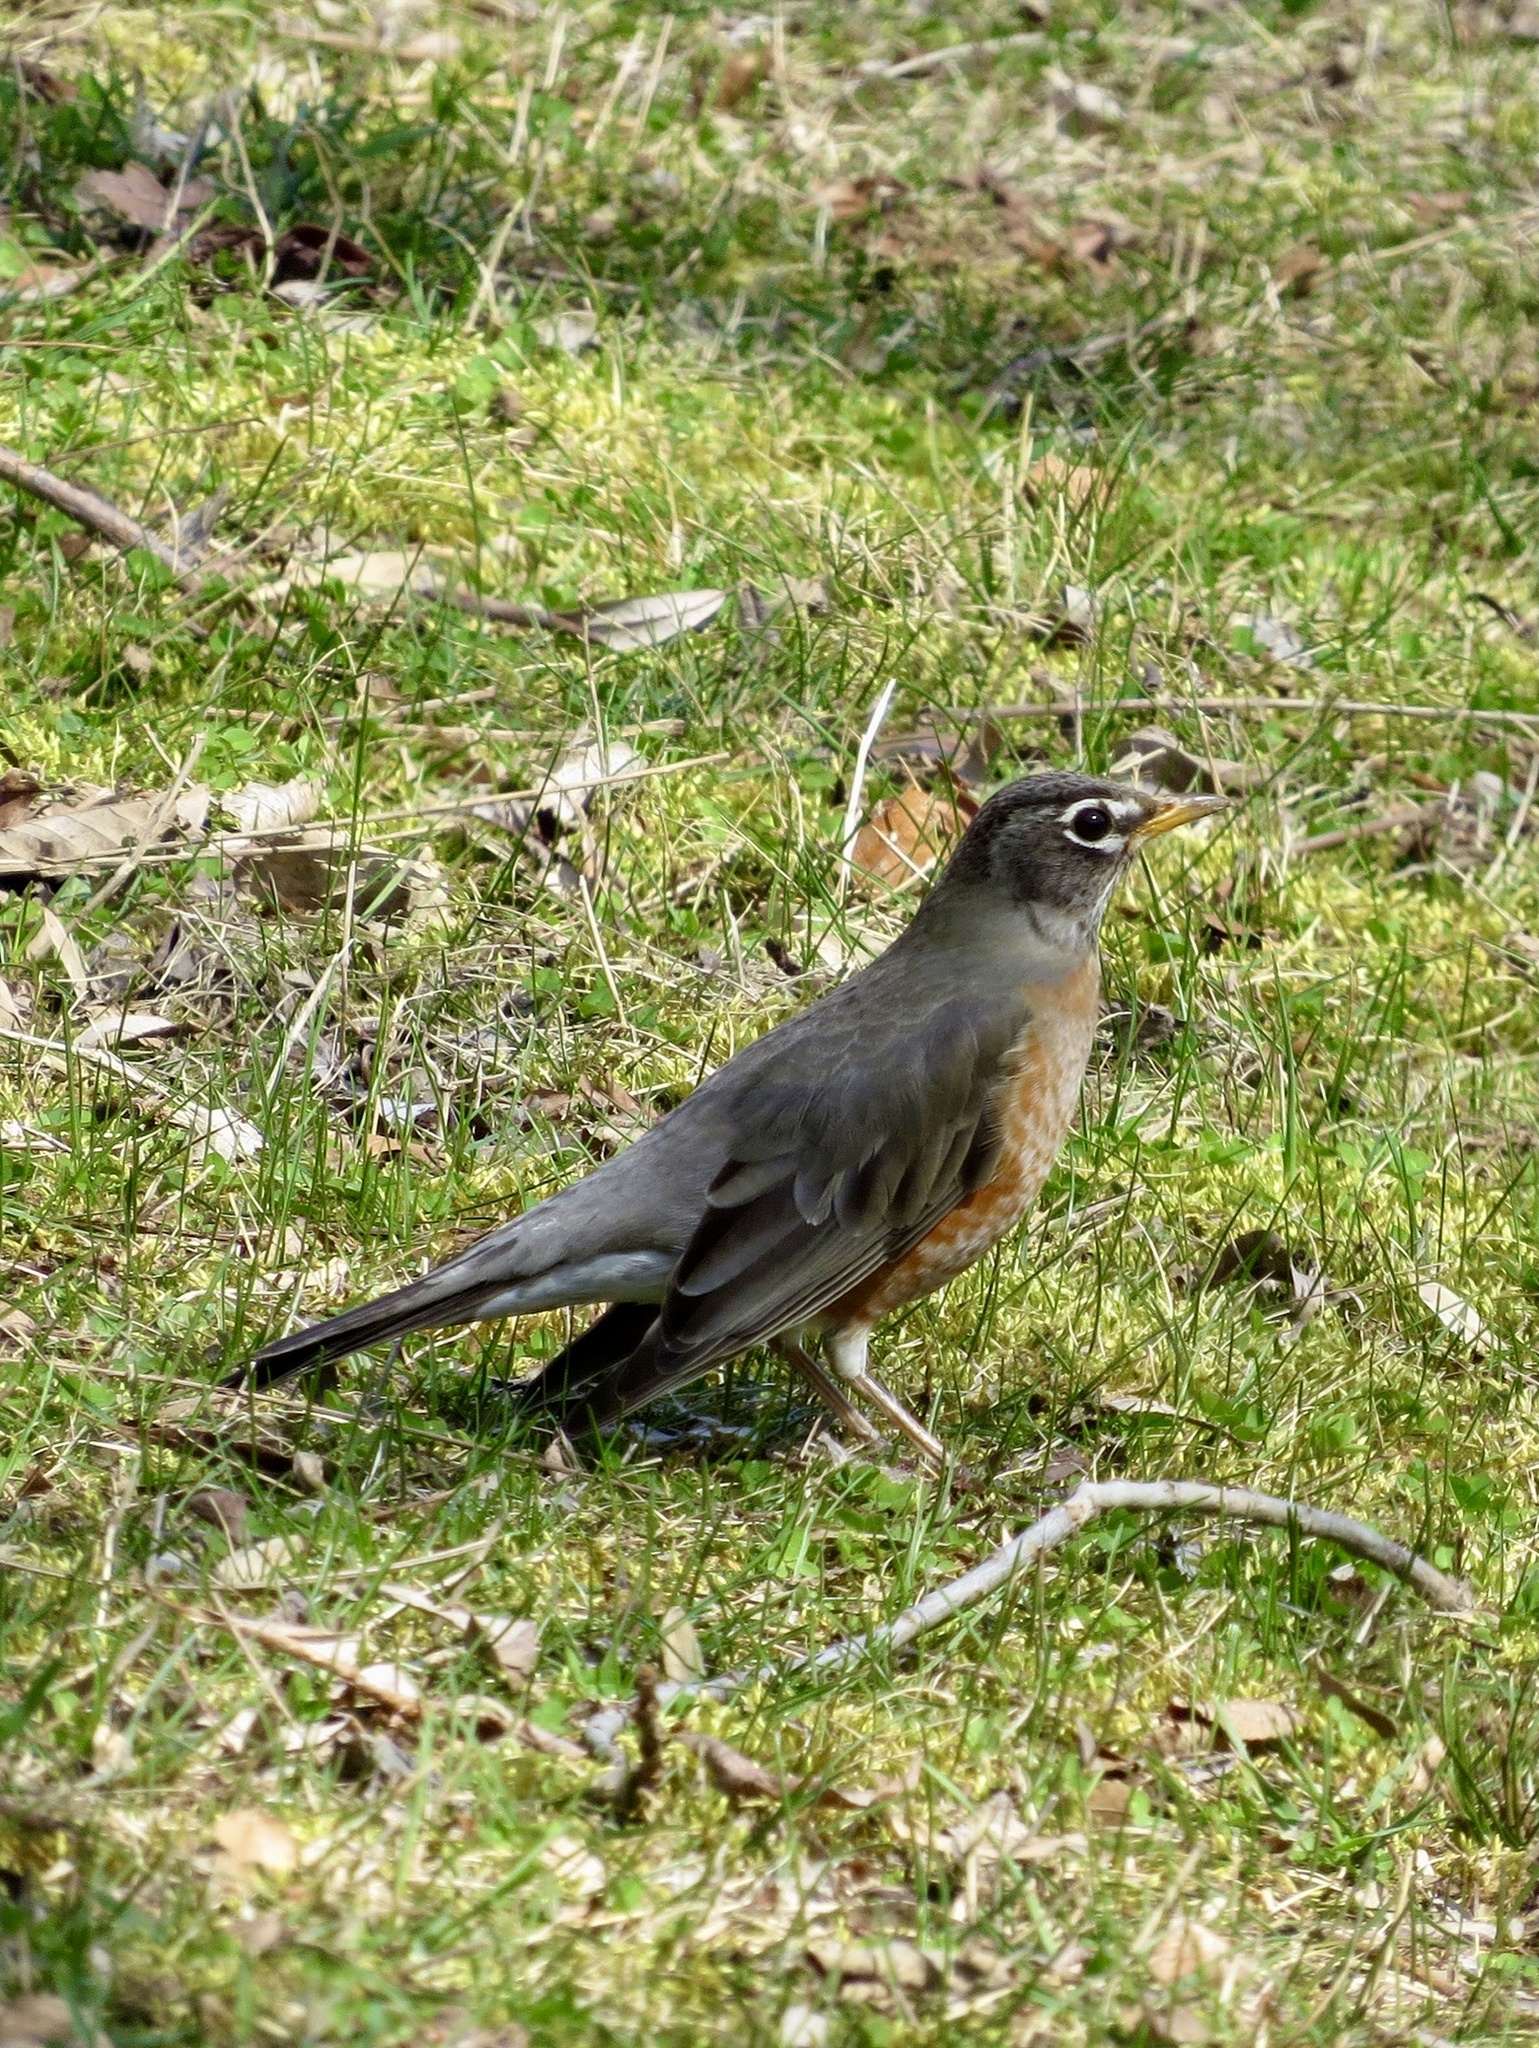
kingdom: Animalia
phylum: Chordata
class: Aves
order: Passeriformes
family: Turdidae
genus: Turdus
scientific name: Turdus migratorius
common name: American robin
